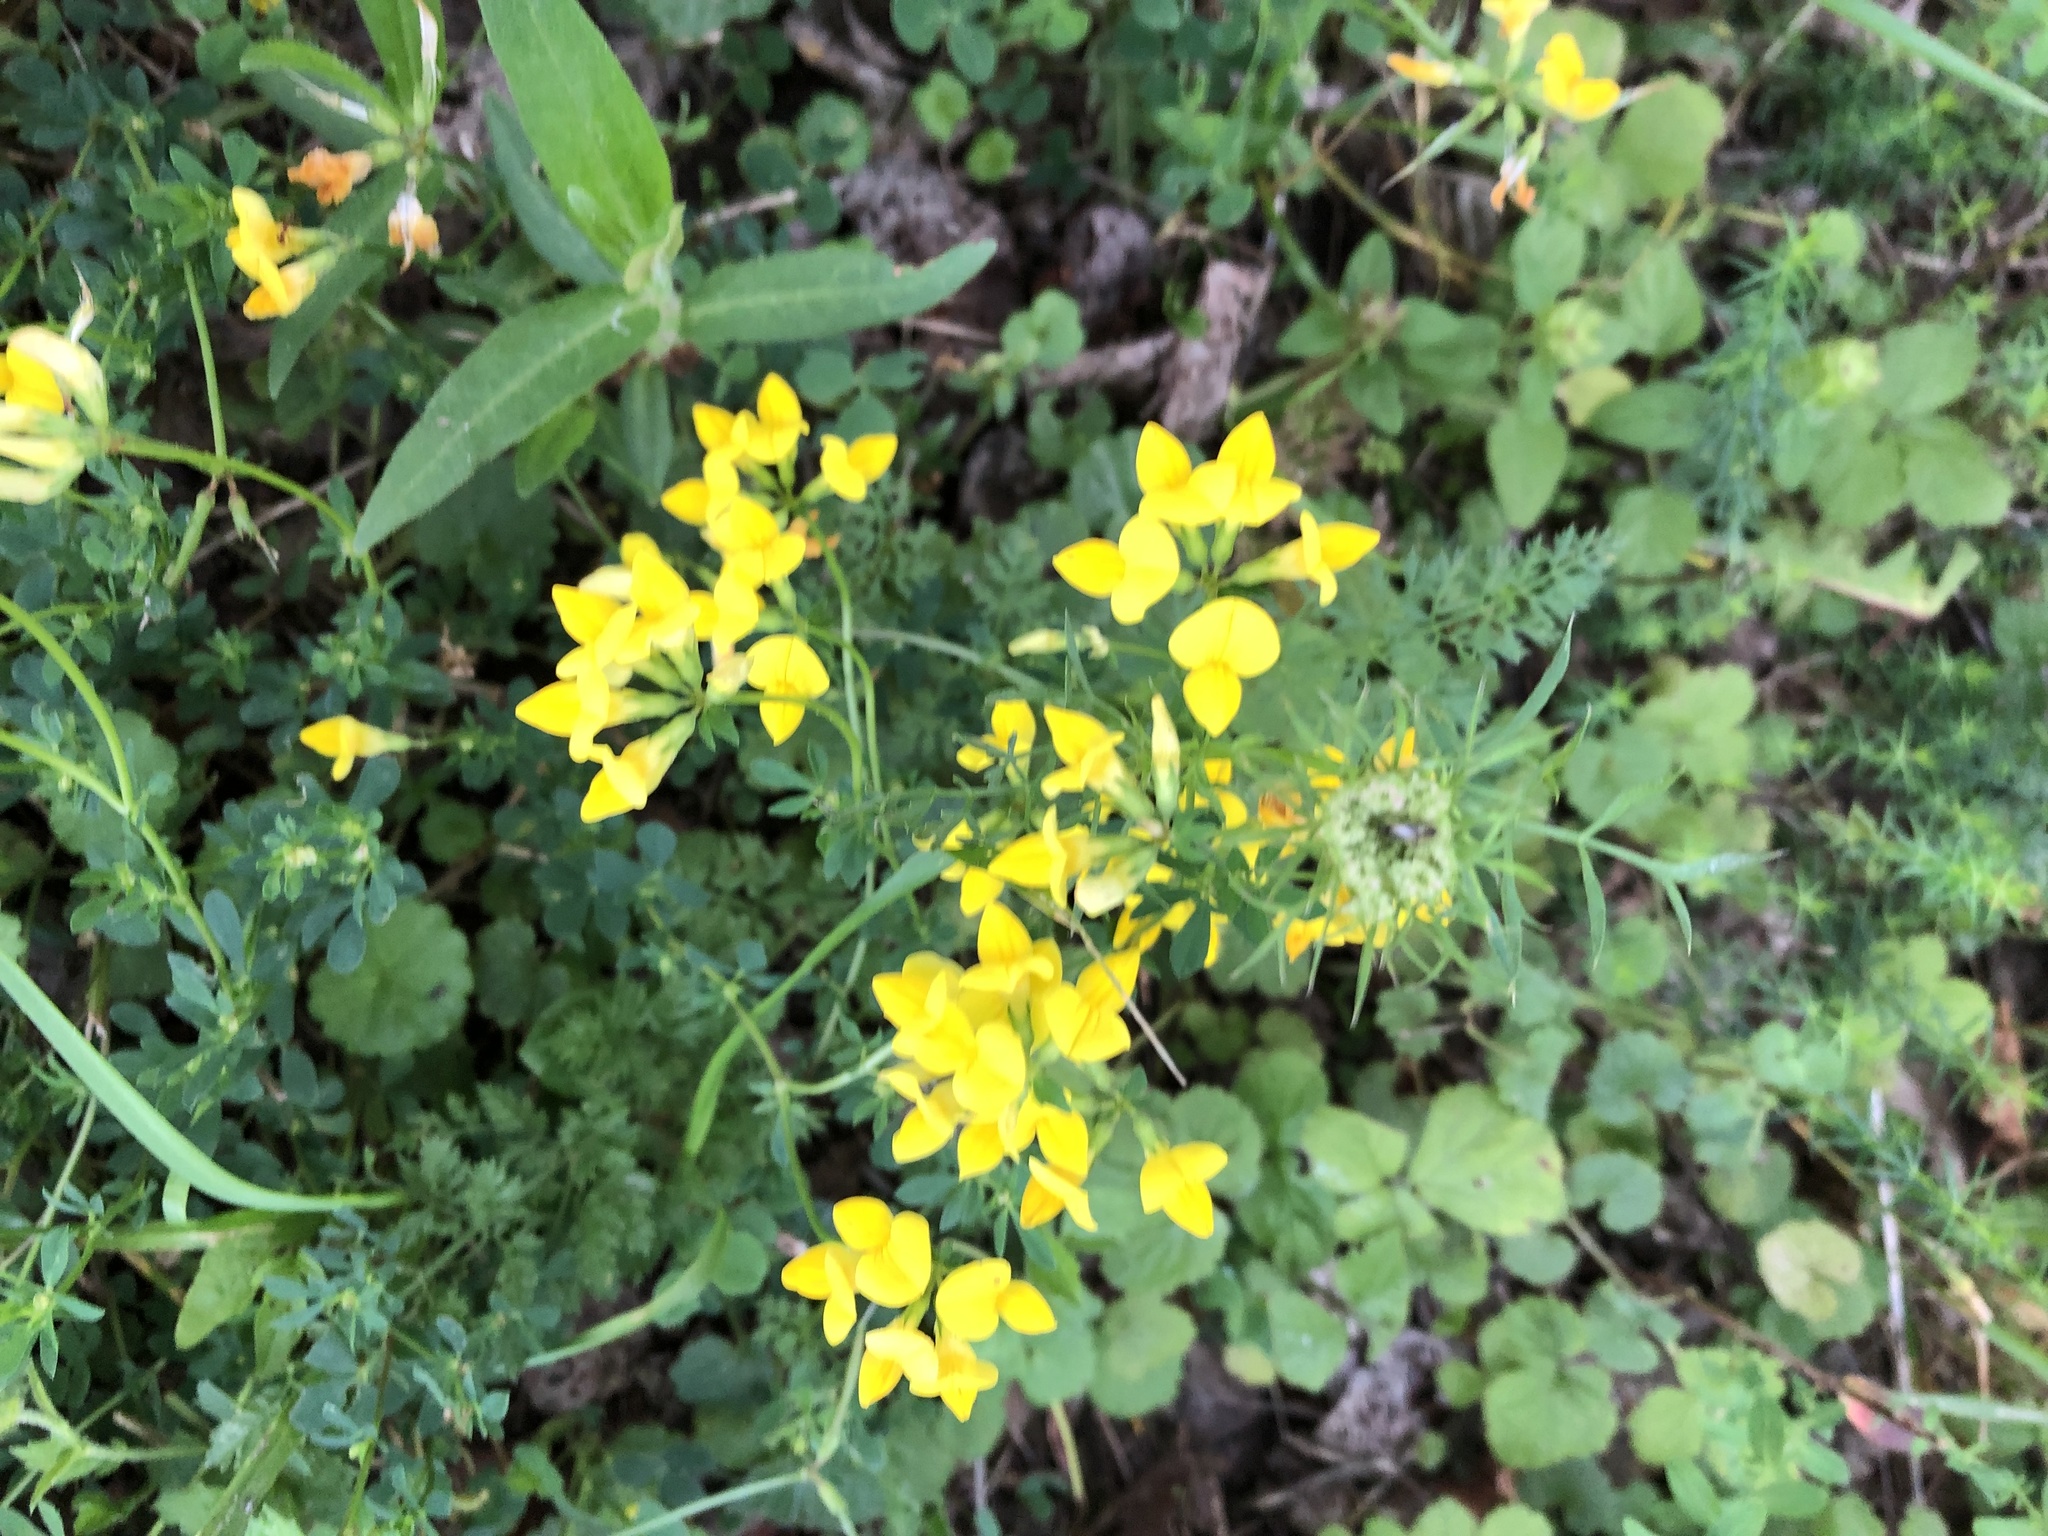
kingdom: Plantae
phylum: Tracheophyta
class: Magnoliopsida
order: Fabales
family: Fabaceae
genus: Lotus
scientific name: Lotus corniculatus
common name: Common bird's-foot-trefoil
